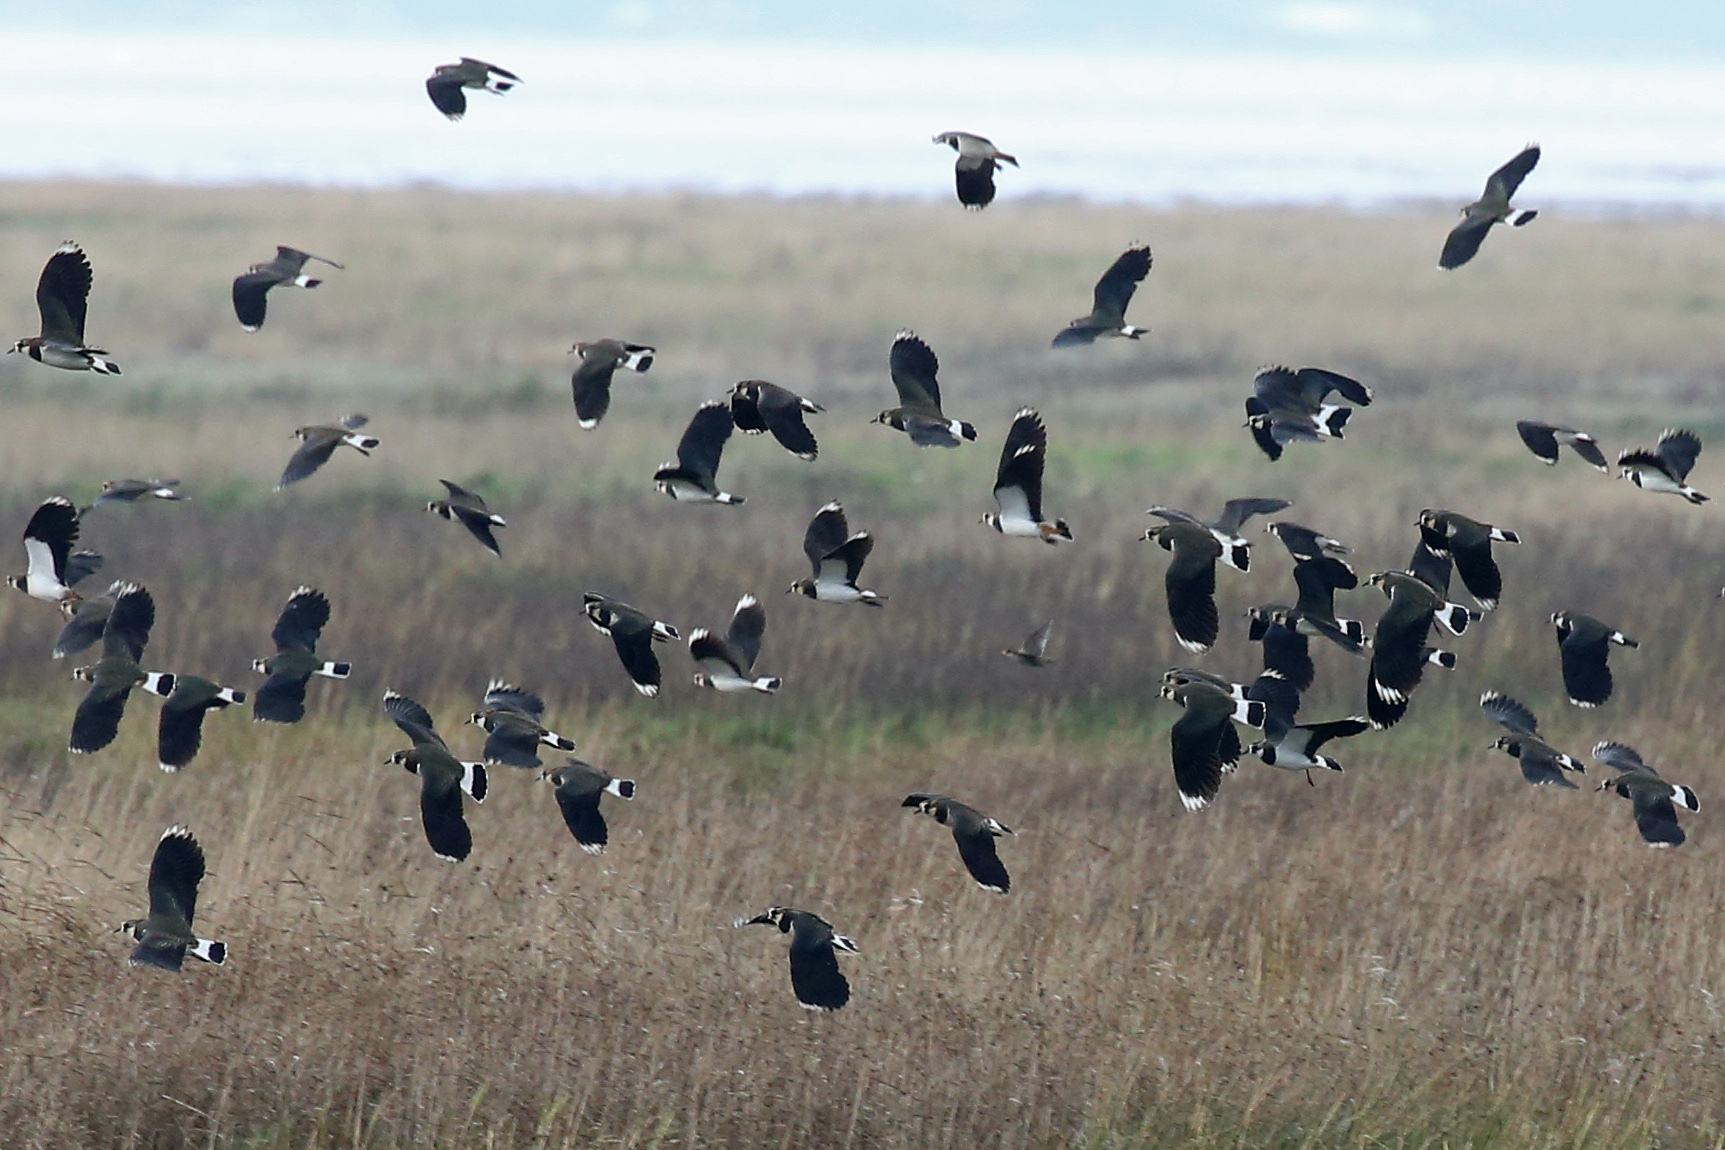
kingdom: Animalia
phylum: Chordata
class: Aves
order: Charadriiformes
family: Charadriidae
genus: Vanellus
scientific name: Vanellus vanellus
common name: Northern lapwing
